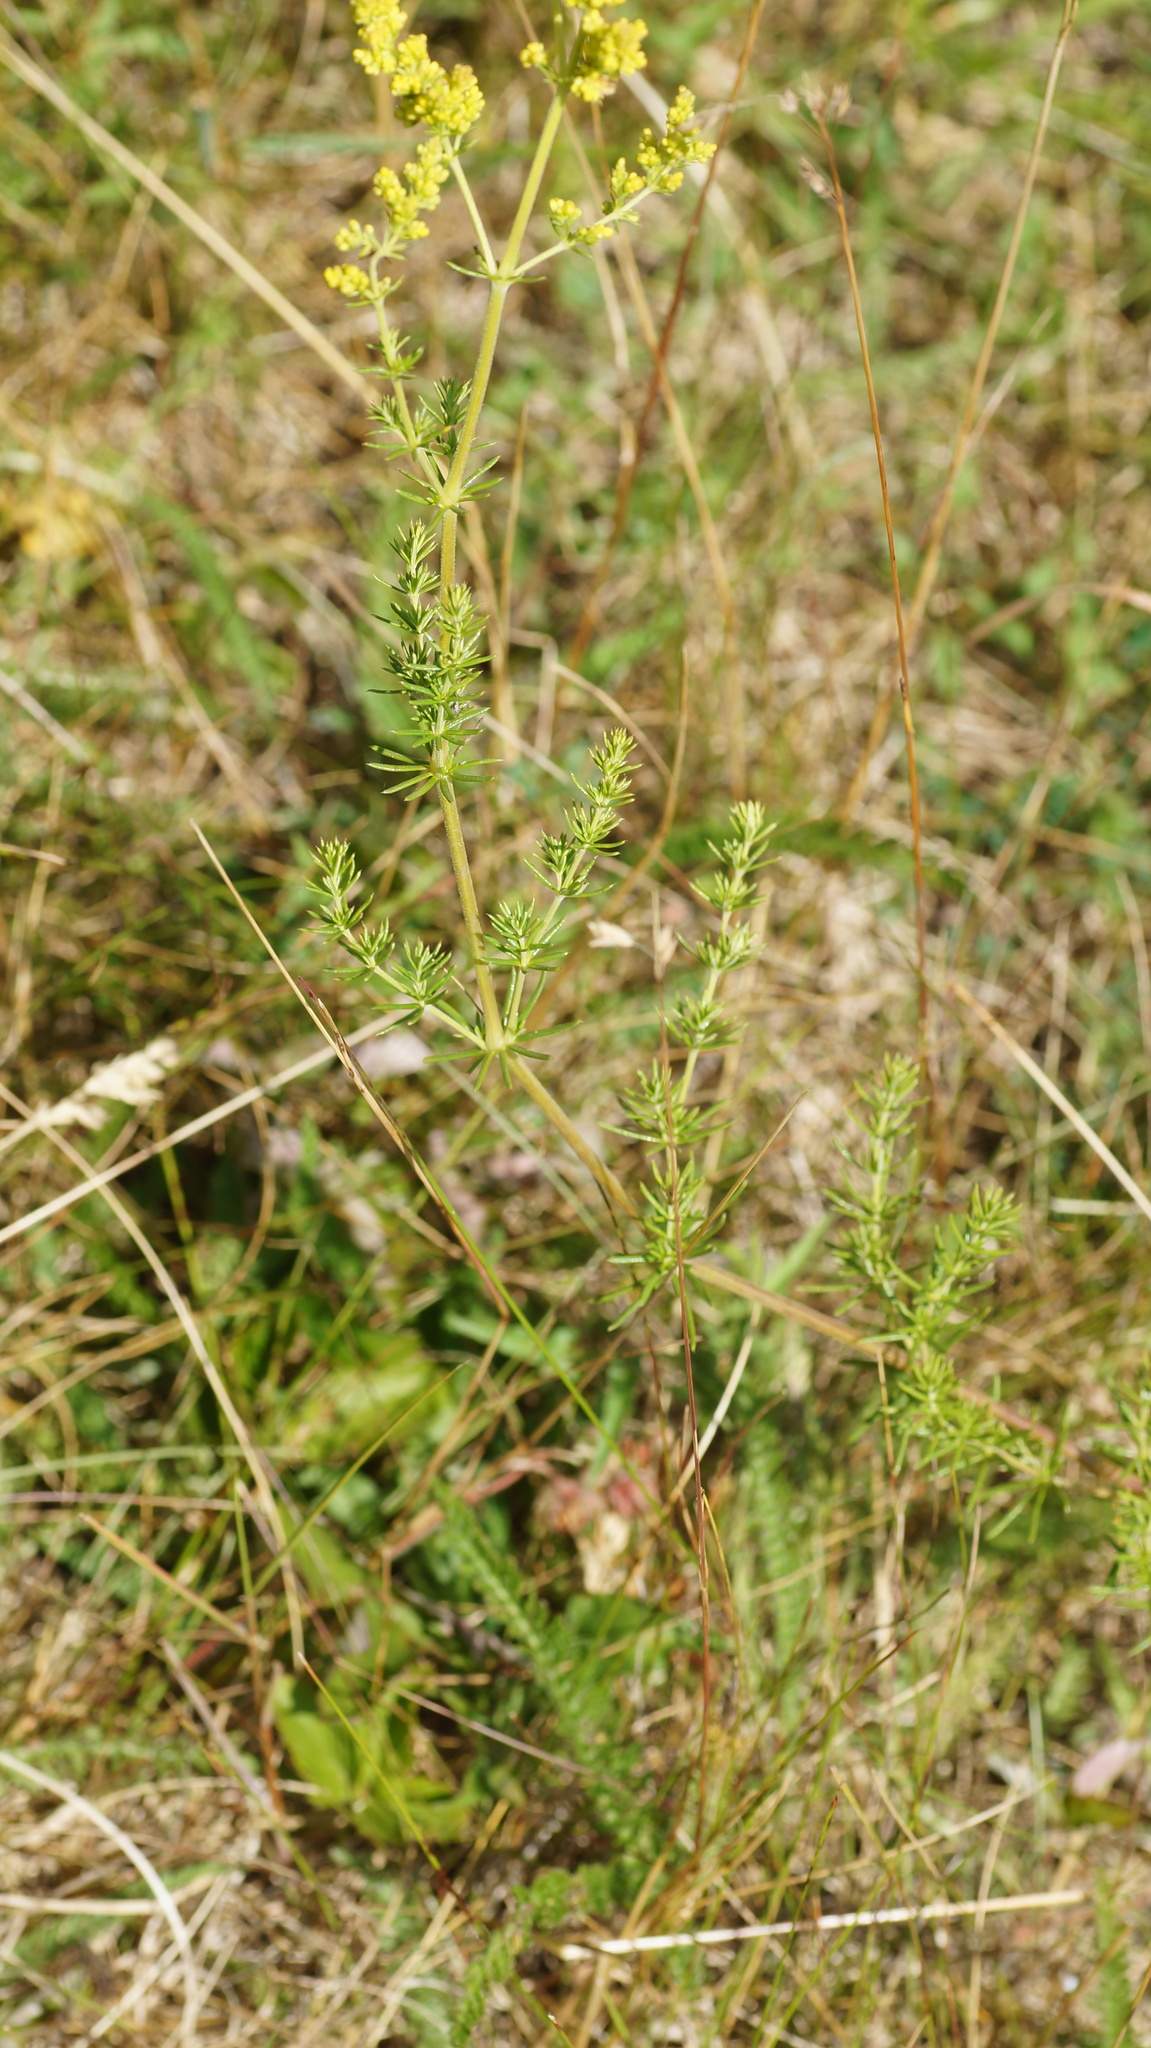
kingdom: Plantae
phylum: Tracheophyta
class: Magnoliopsida
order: Gentianales
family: Rubiaceae
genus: Galium
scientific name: Galium verum
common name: Lady's bedstraw
